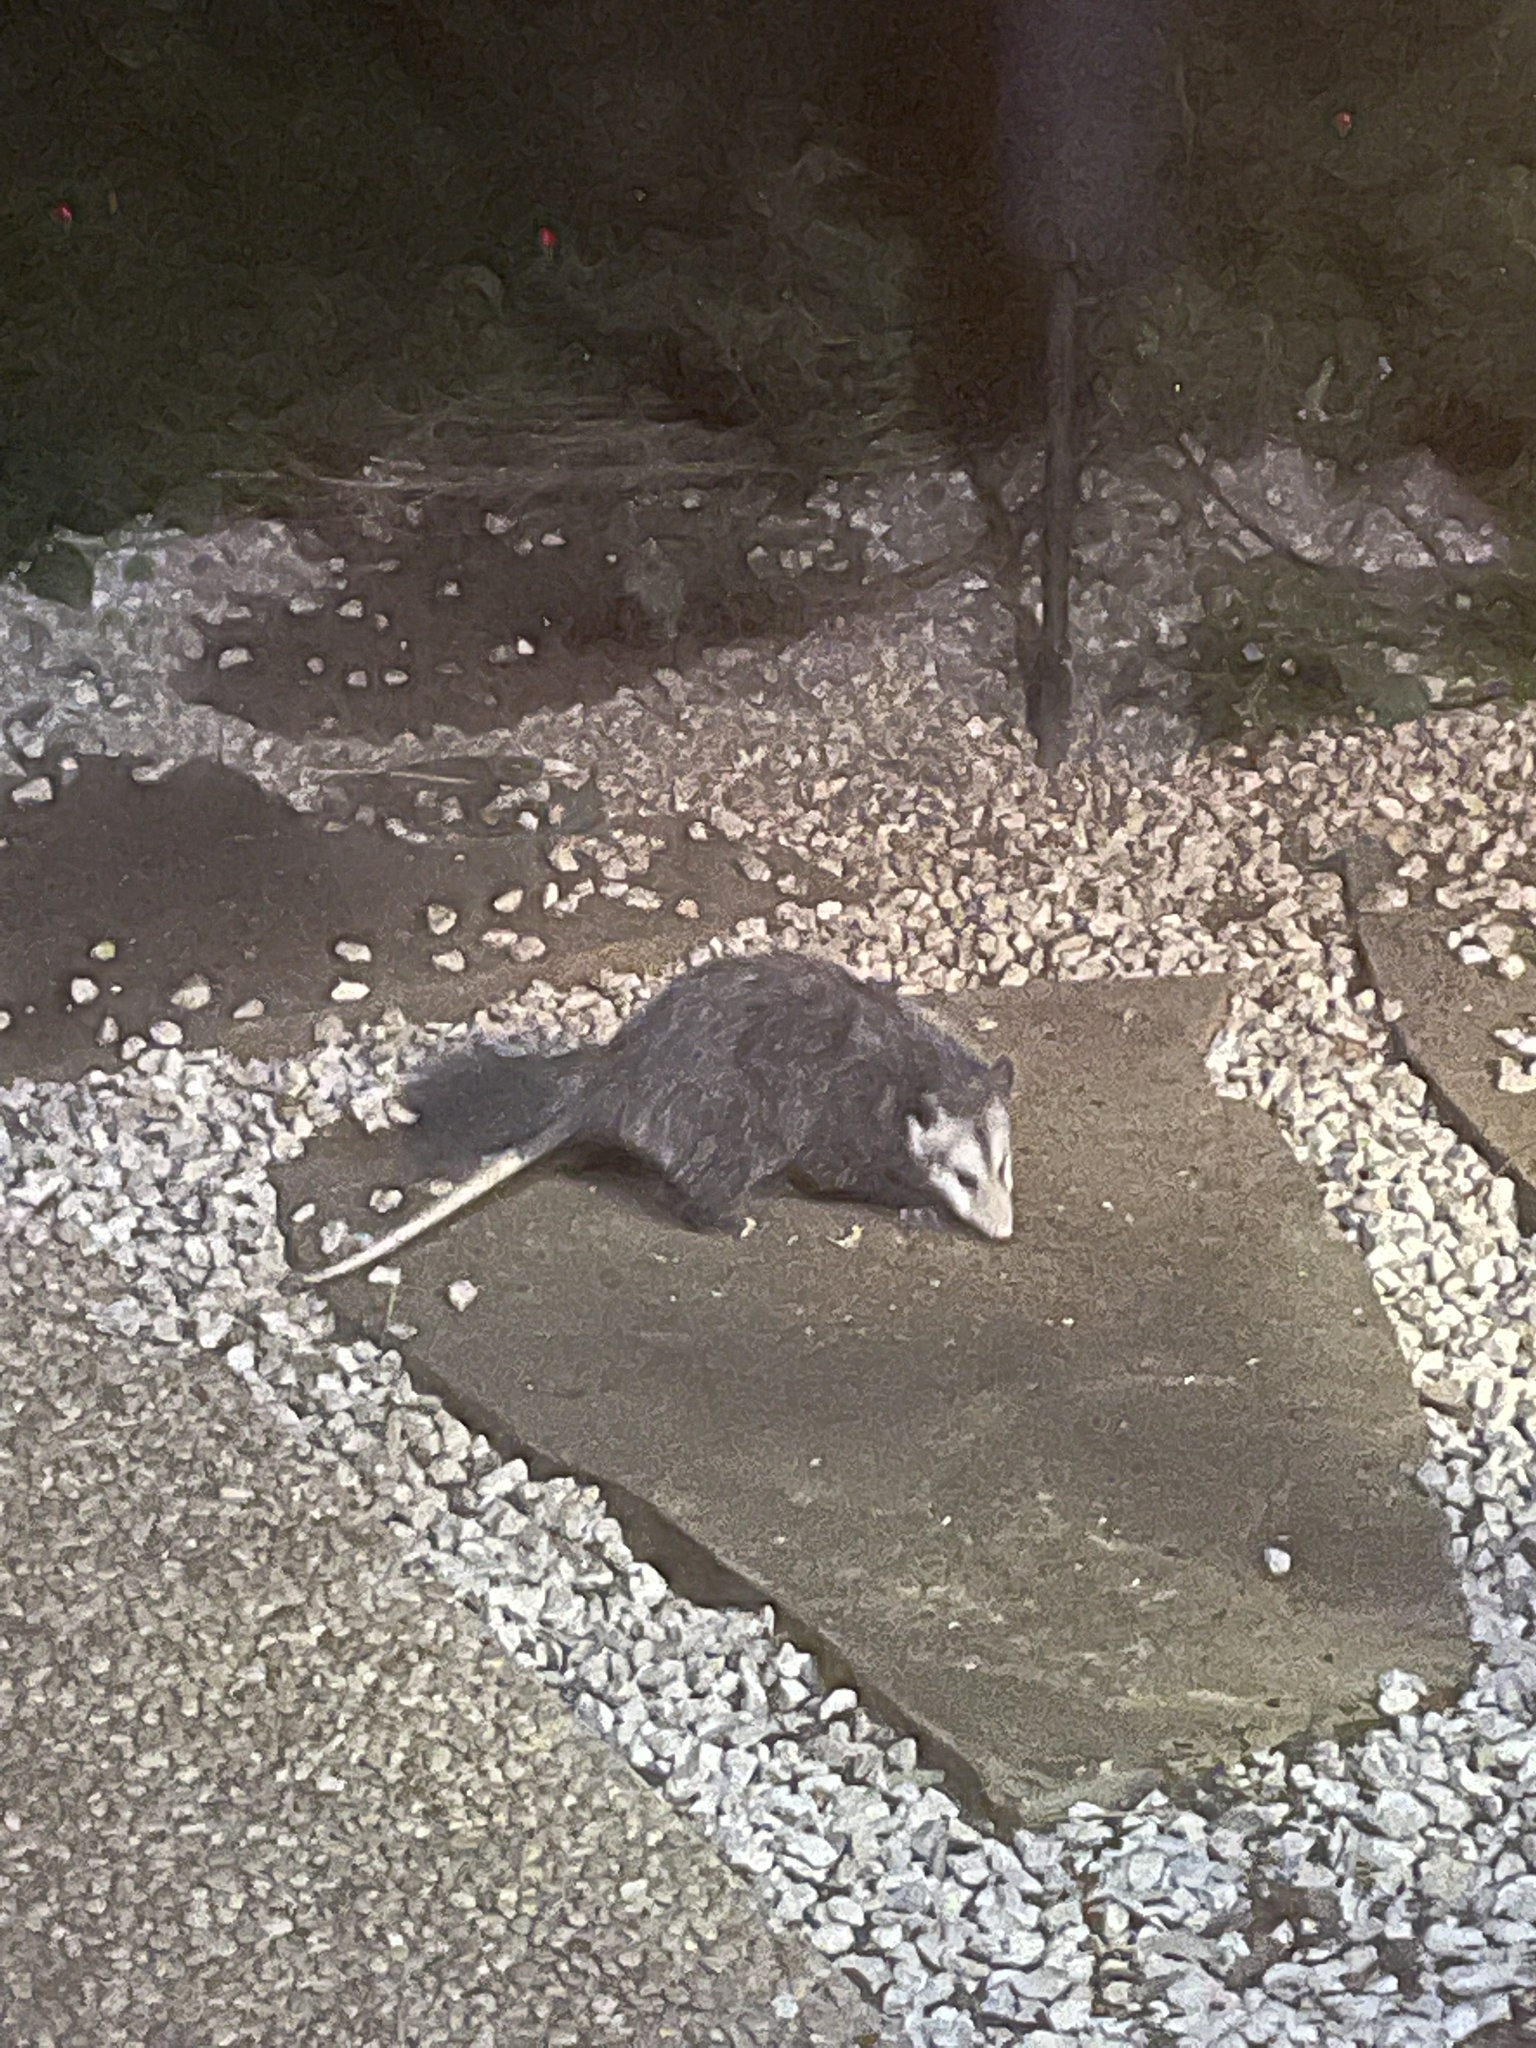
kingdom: Animalia
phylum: Chordata
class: Mammalia
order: Didelphimorphia
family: Didelphidae
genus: Didelphis
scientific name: Didelphis virginiana
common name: Virginia opossum
